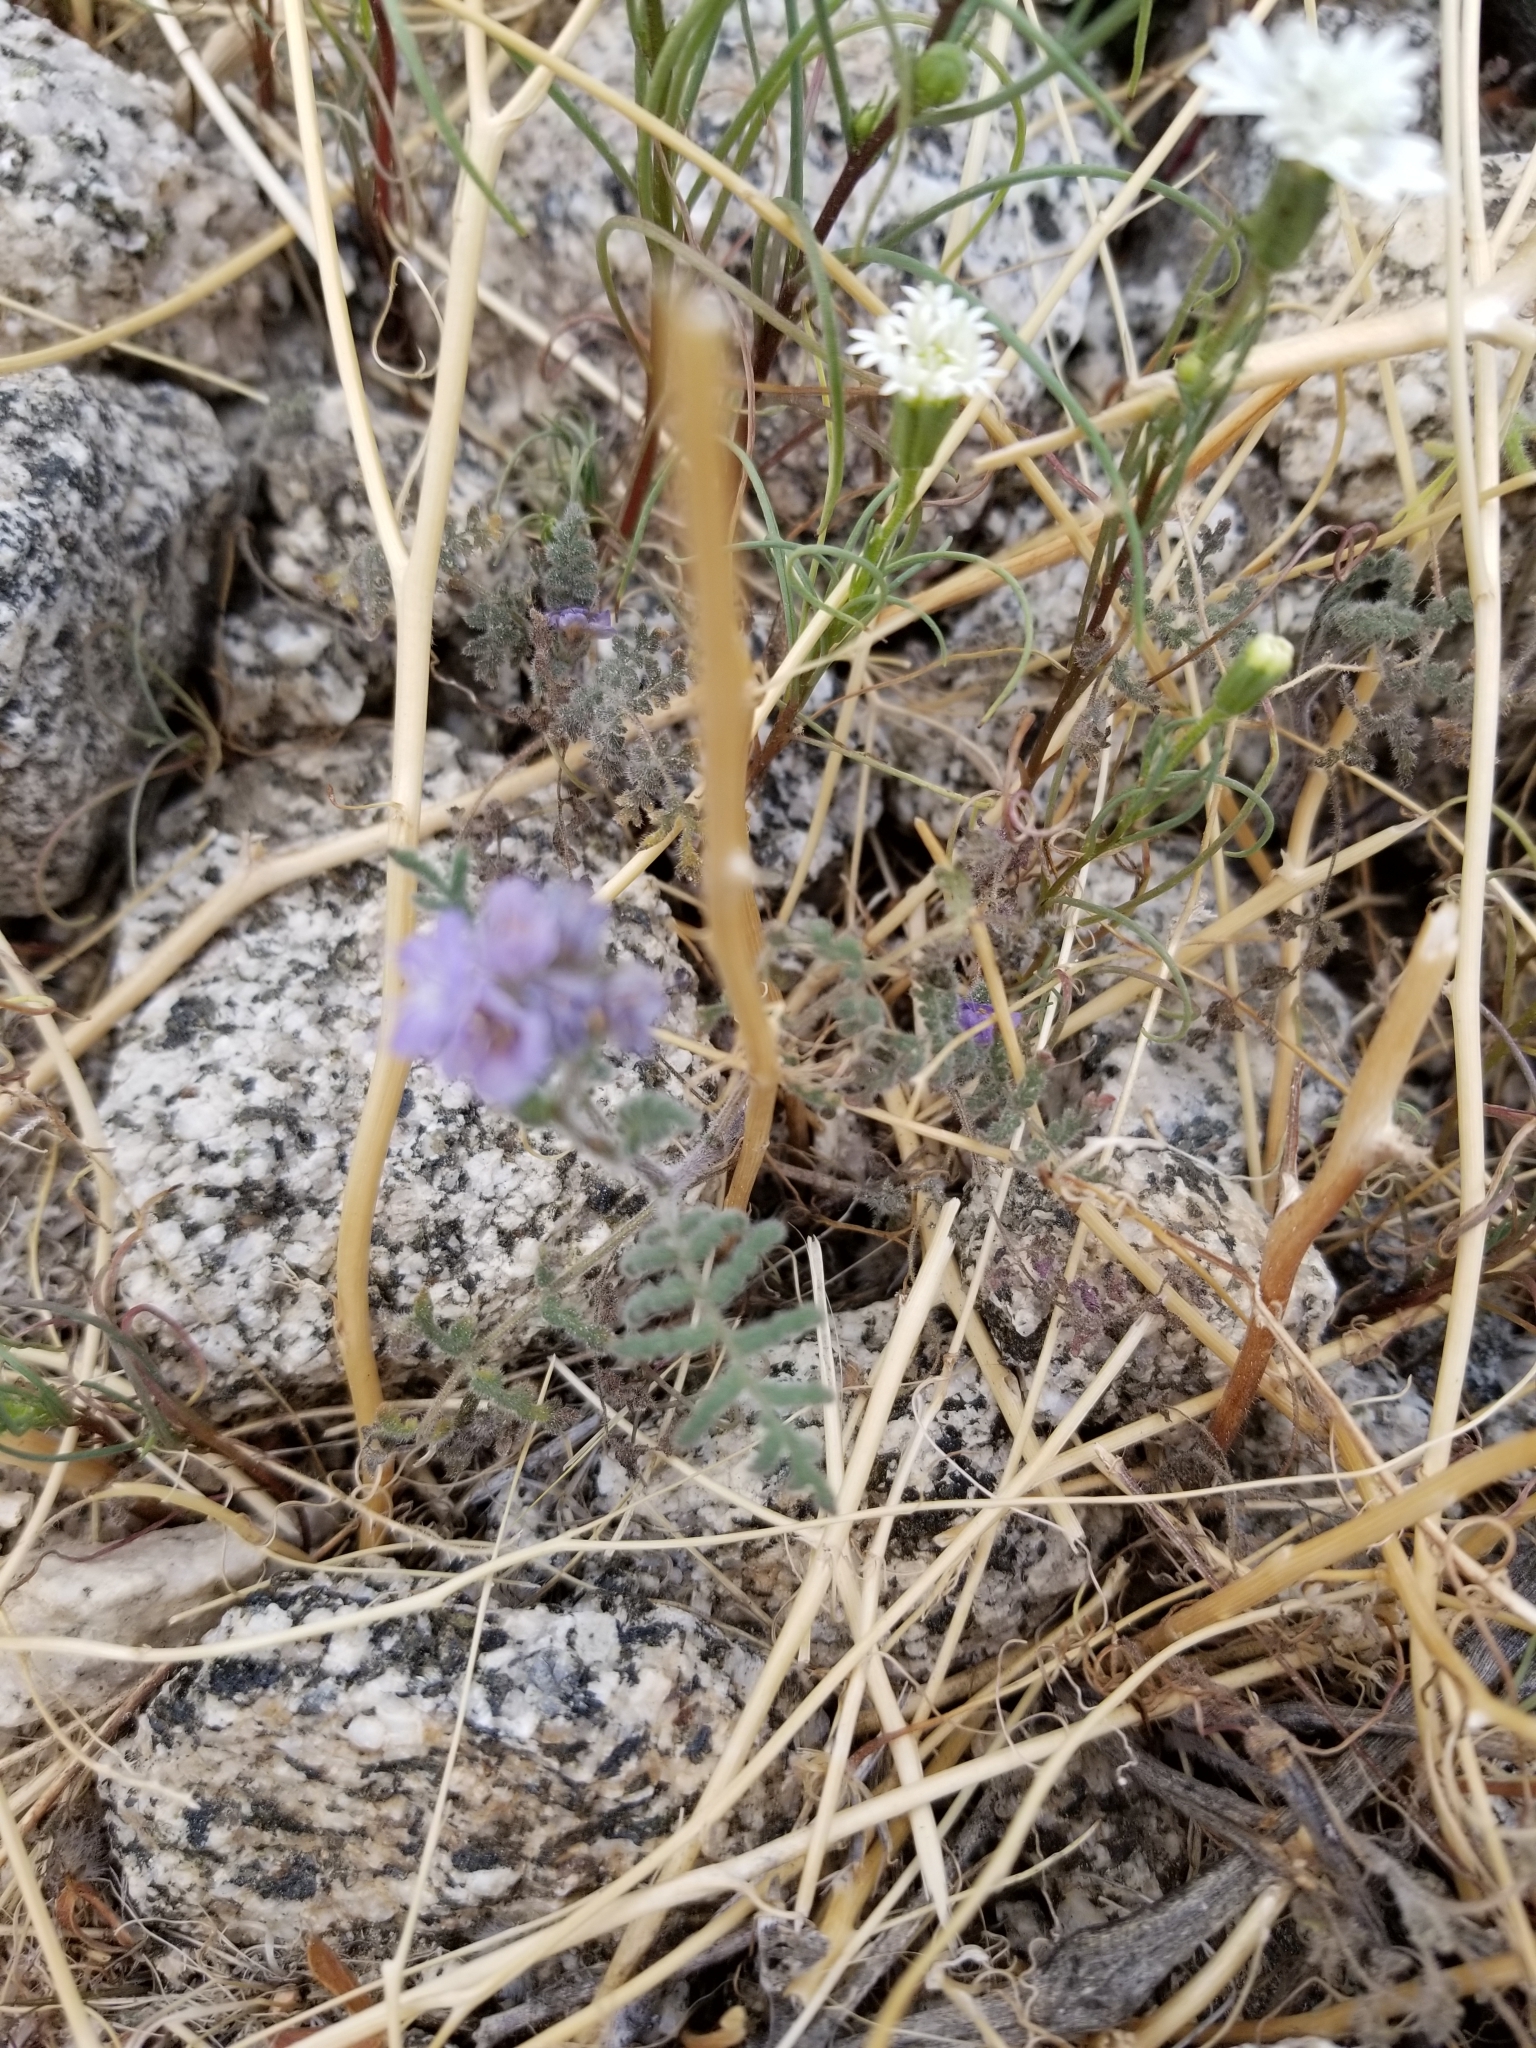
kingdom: Plantae
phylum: Tracheophyta
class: Magnoliopsida
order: Boraginales
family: Hydrophyllaceae
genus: Phacelia
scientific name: Phacelia distans
